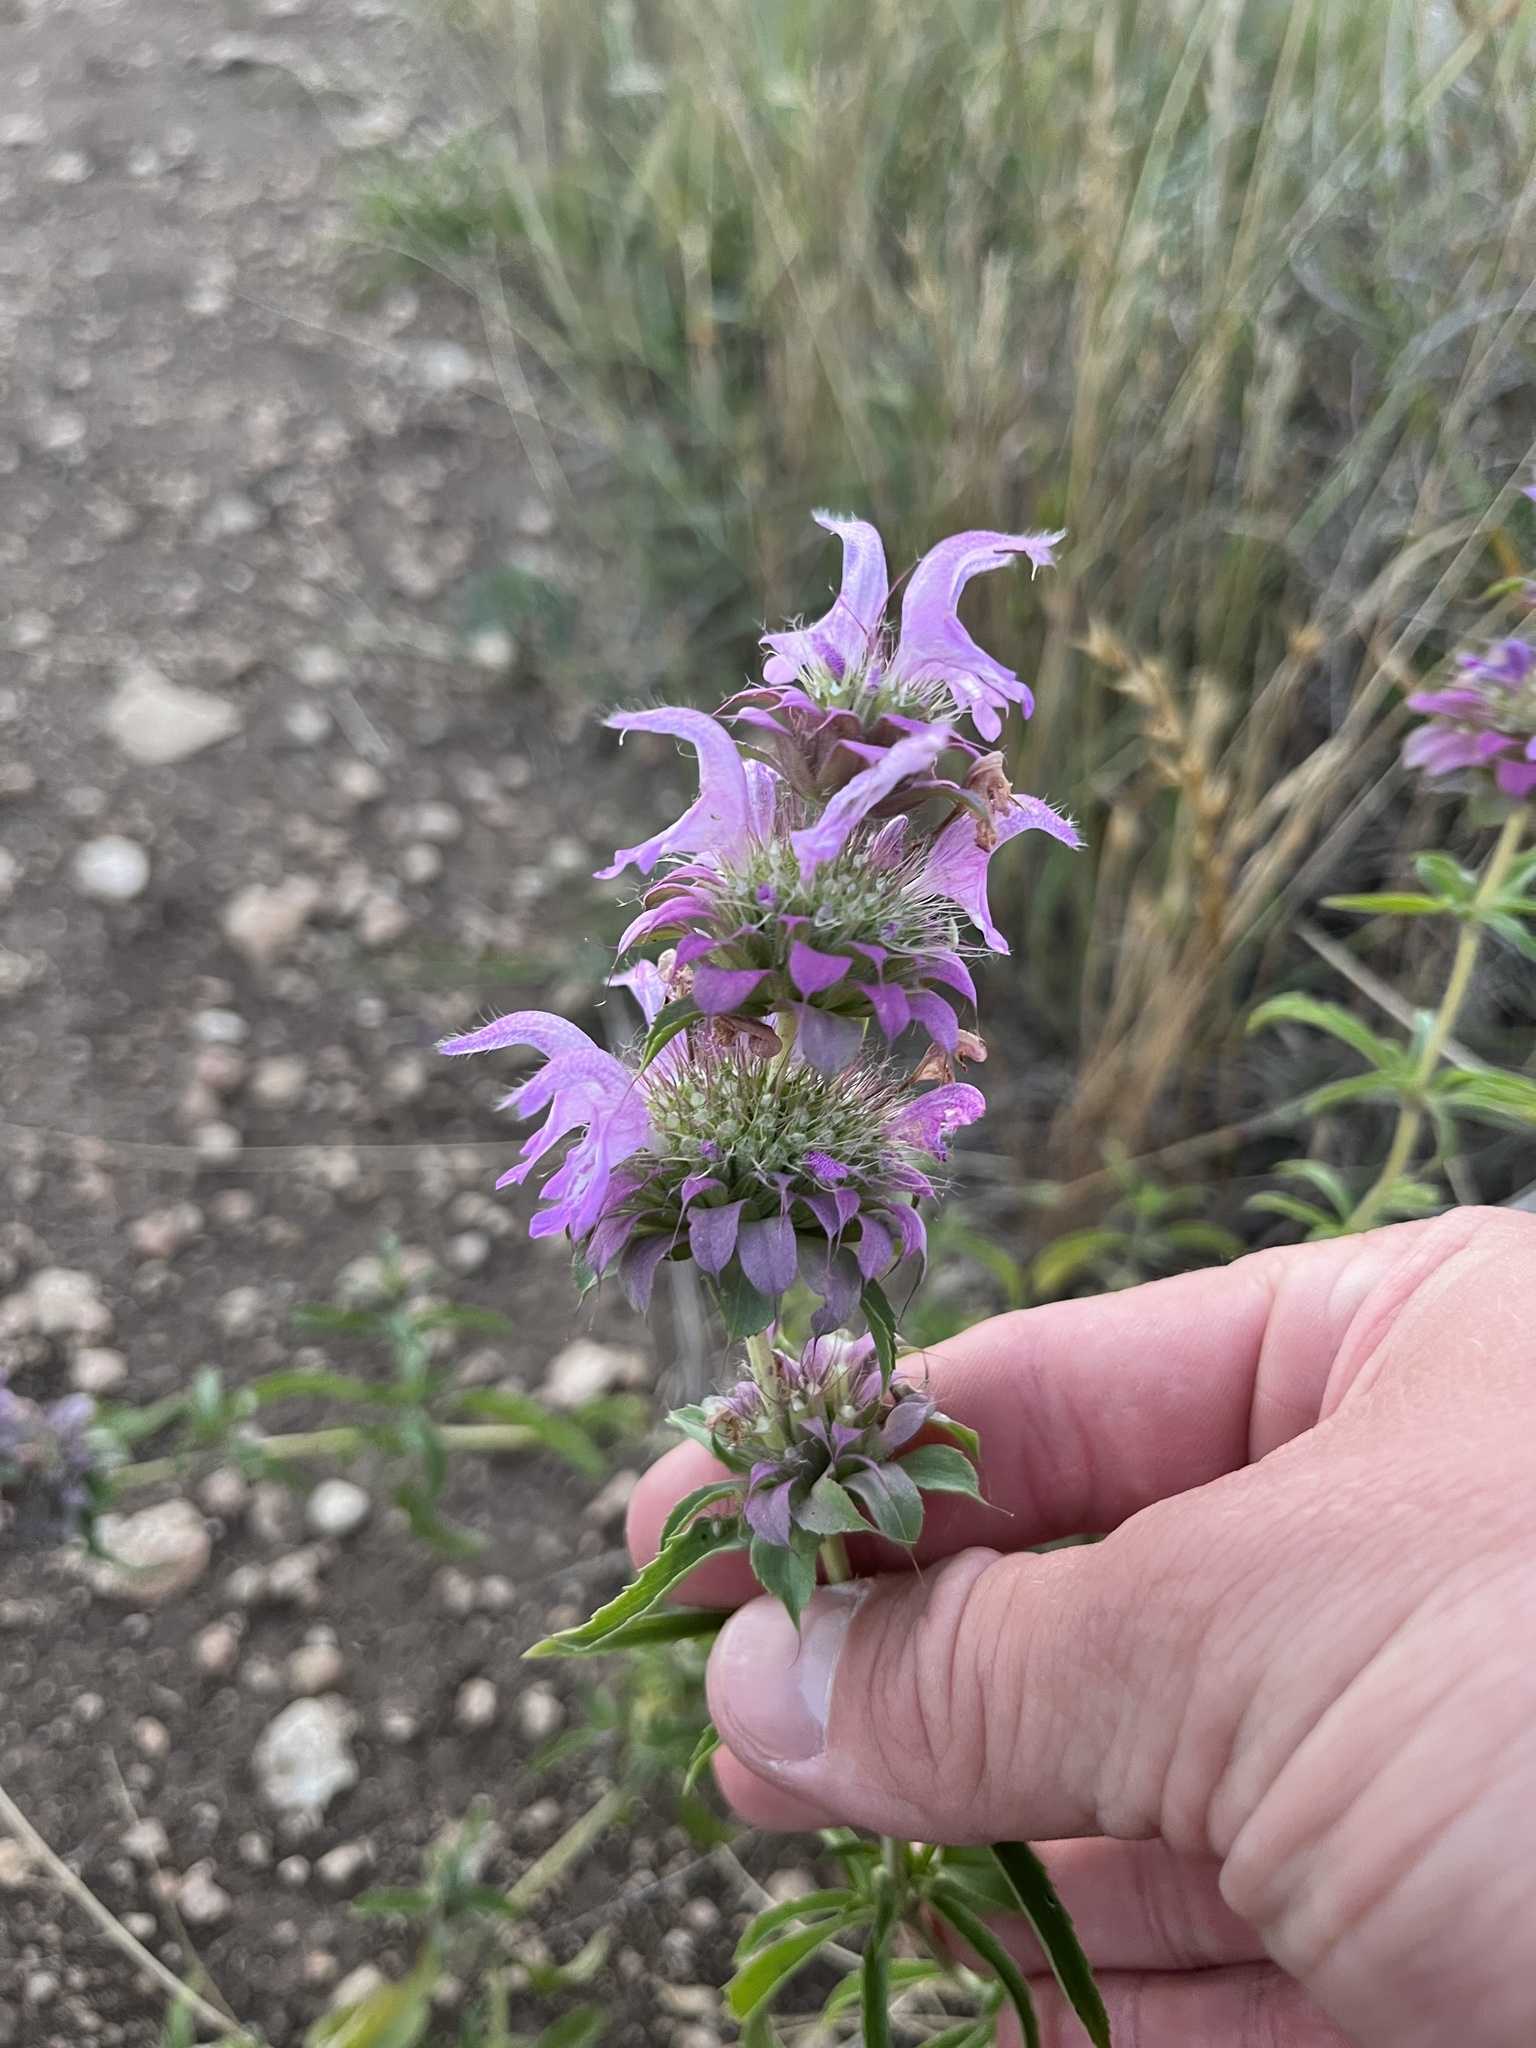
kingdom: Plantae
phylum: Tracheophyta
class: Magnoliopsida
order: Lamiales
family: Lamiaceae
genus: Monarda
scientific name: Monarda citriodora
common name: Lemon beebalm
